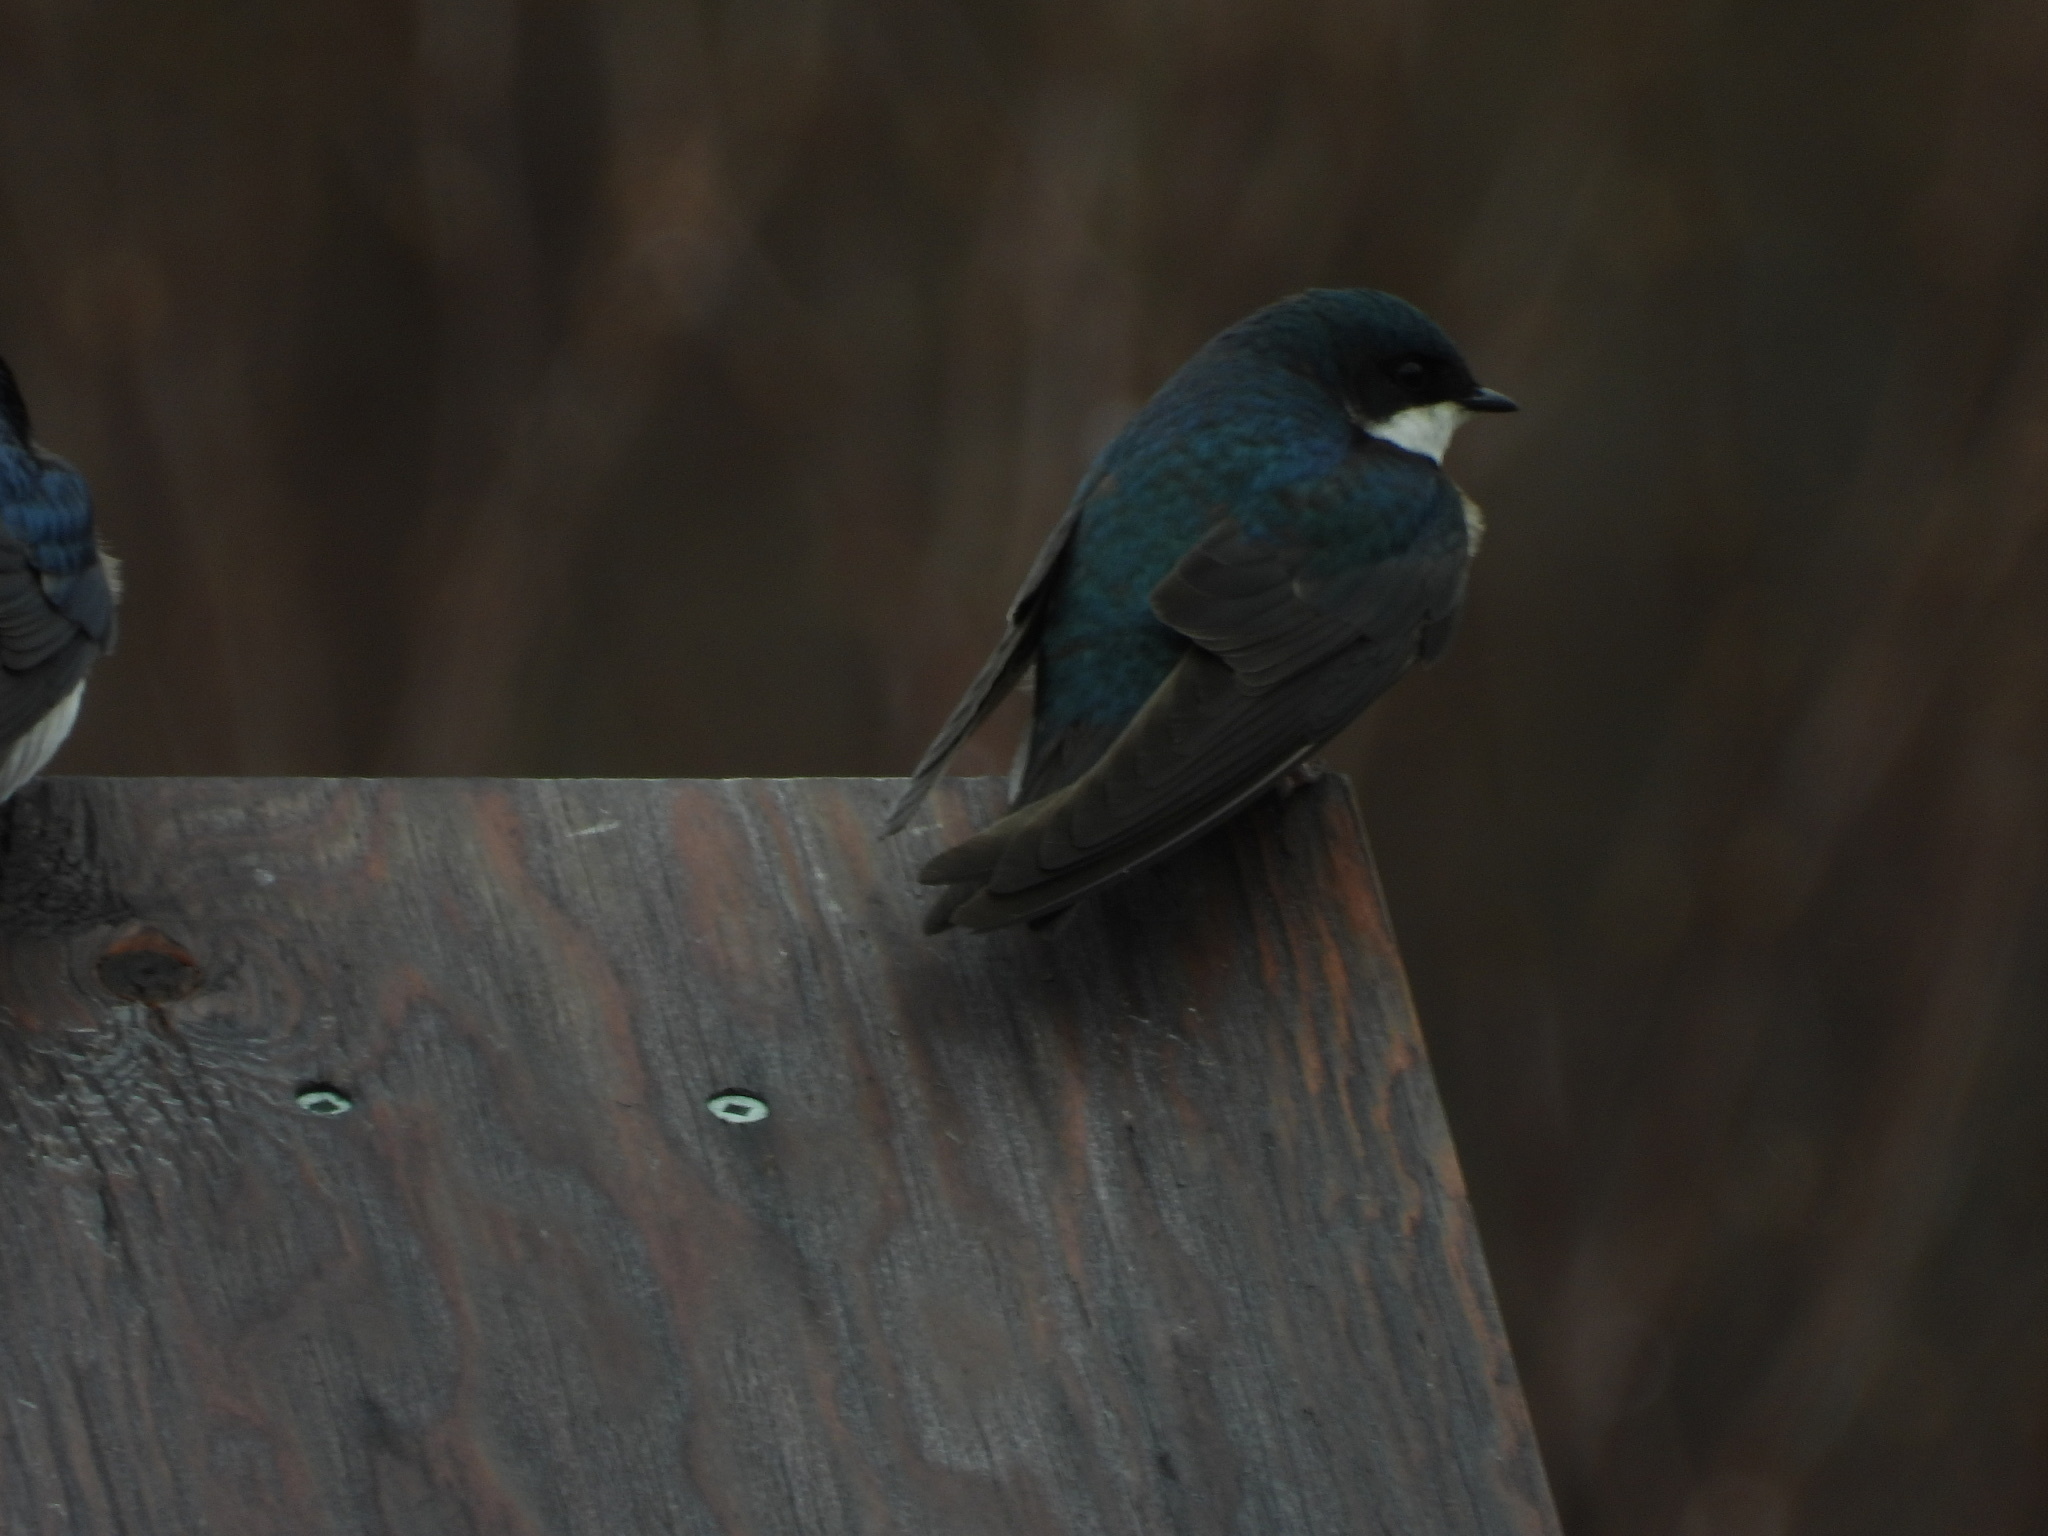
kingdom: Animalia
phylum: Chordata
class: Aves
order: Passeriformes
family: Hirundinidae
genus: Tachycineta
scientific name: Tachycineta bicolor
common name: Tree swallow
